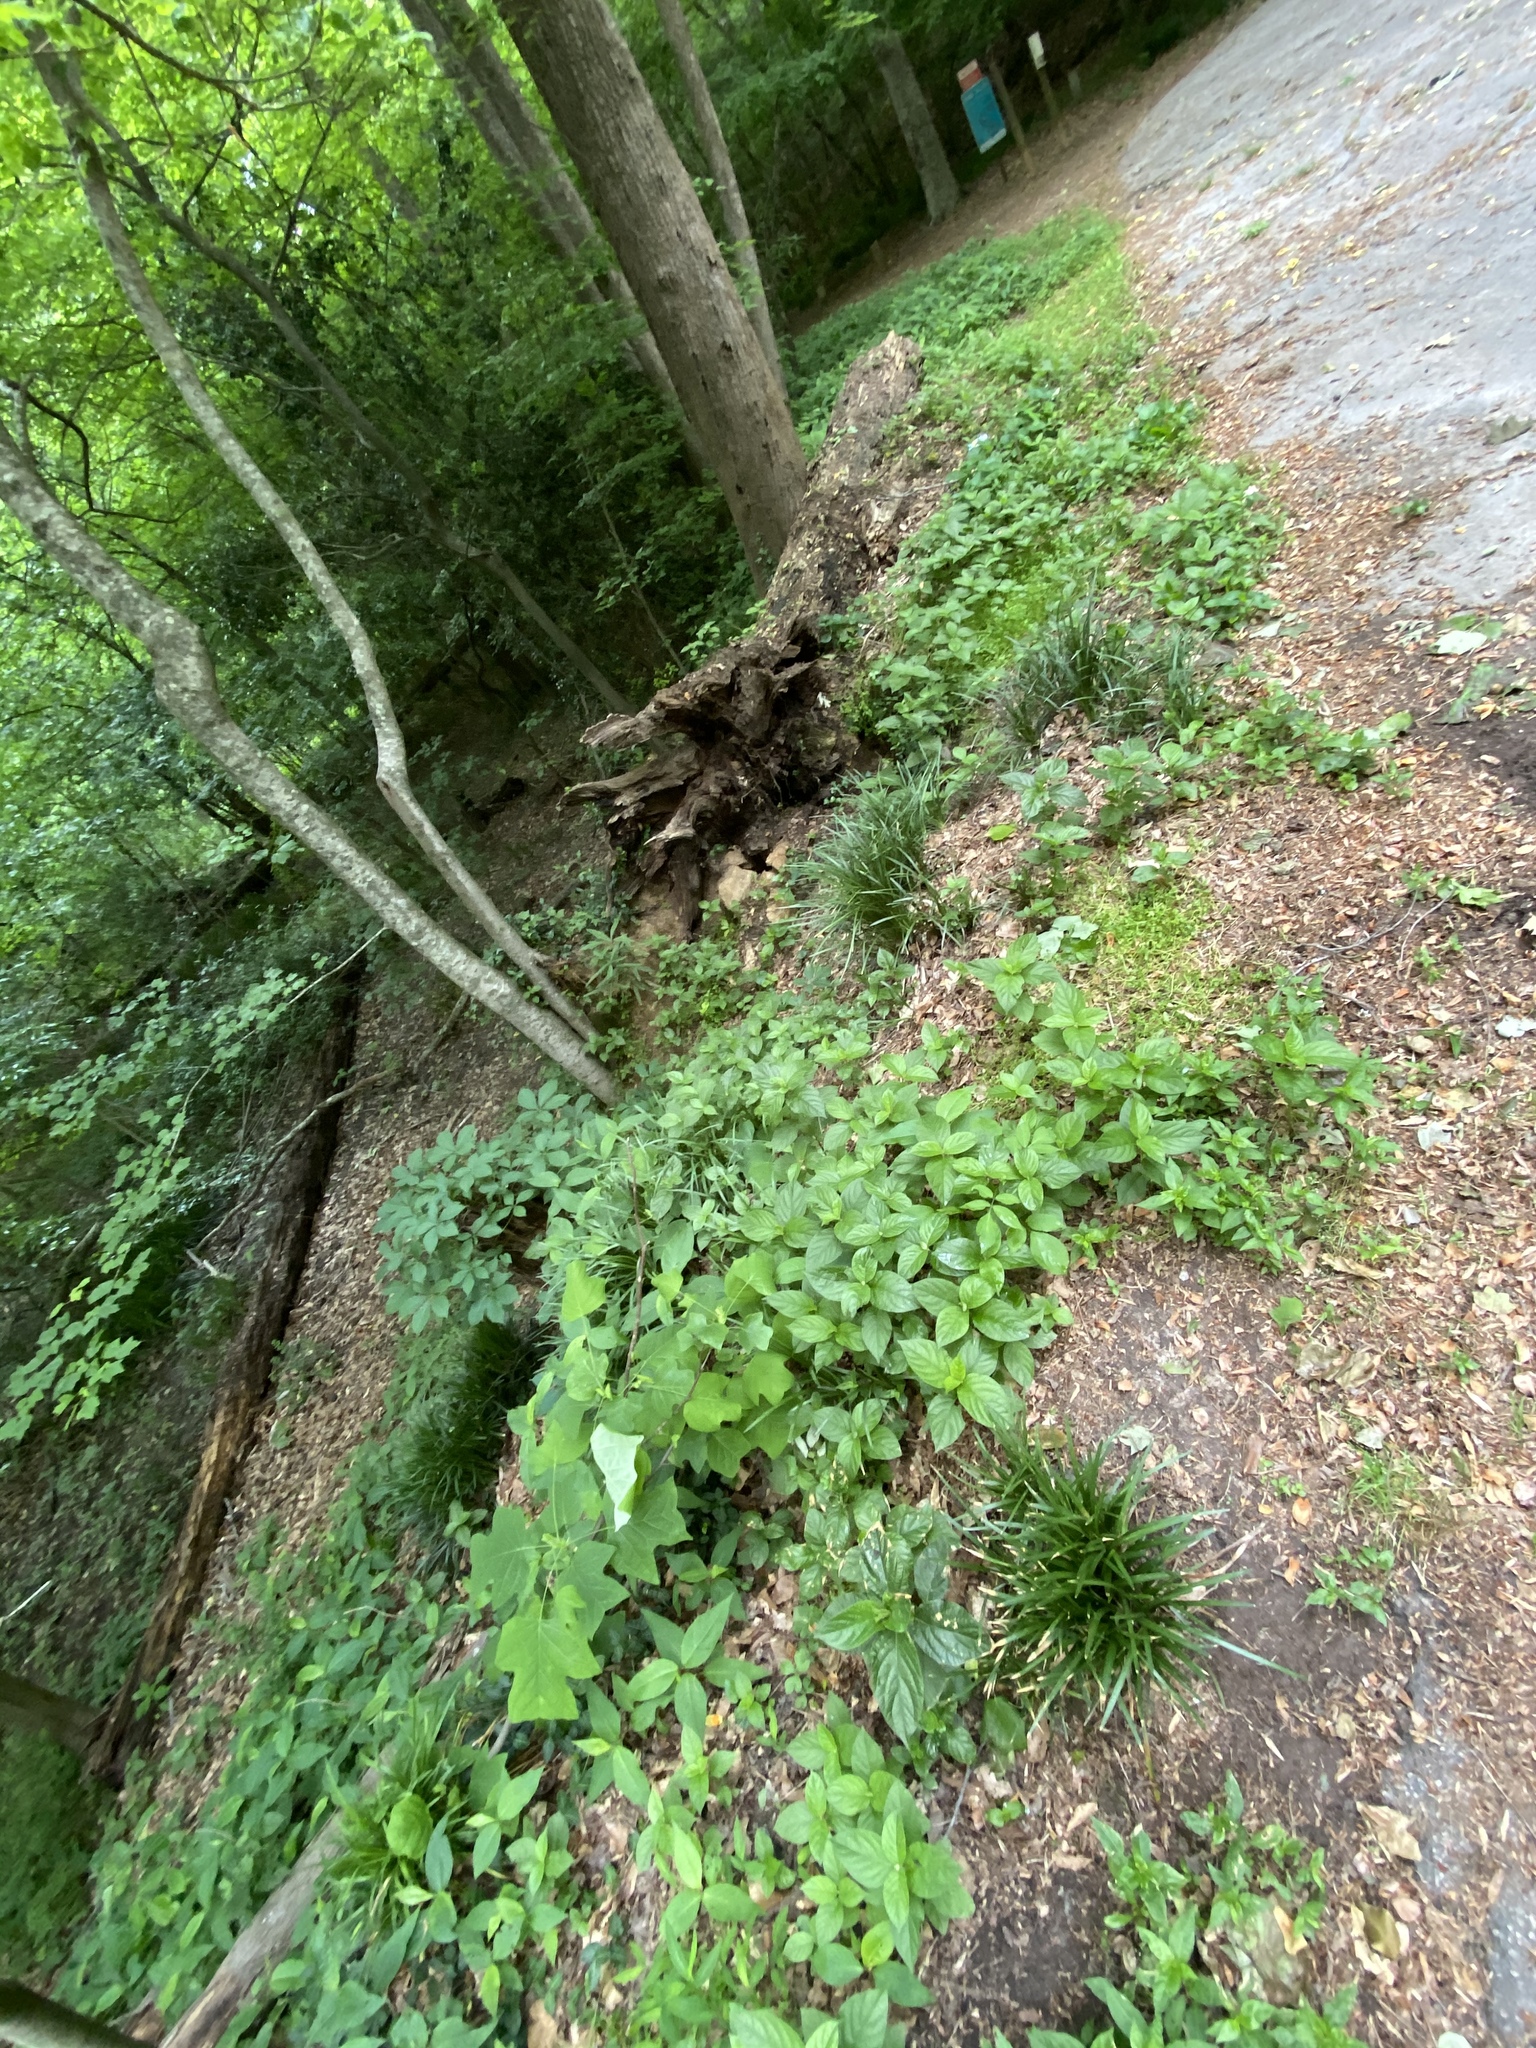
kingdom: Plantae
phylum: Tracheophyta
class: Magnoliopsida
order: Caryophyllales
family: Amaranthaceae
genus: Achyranthes
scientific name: Achyranthes bidentata
